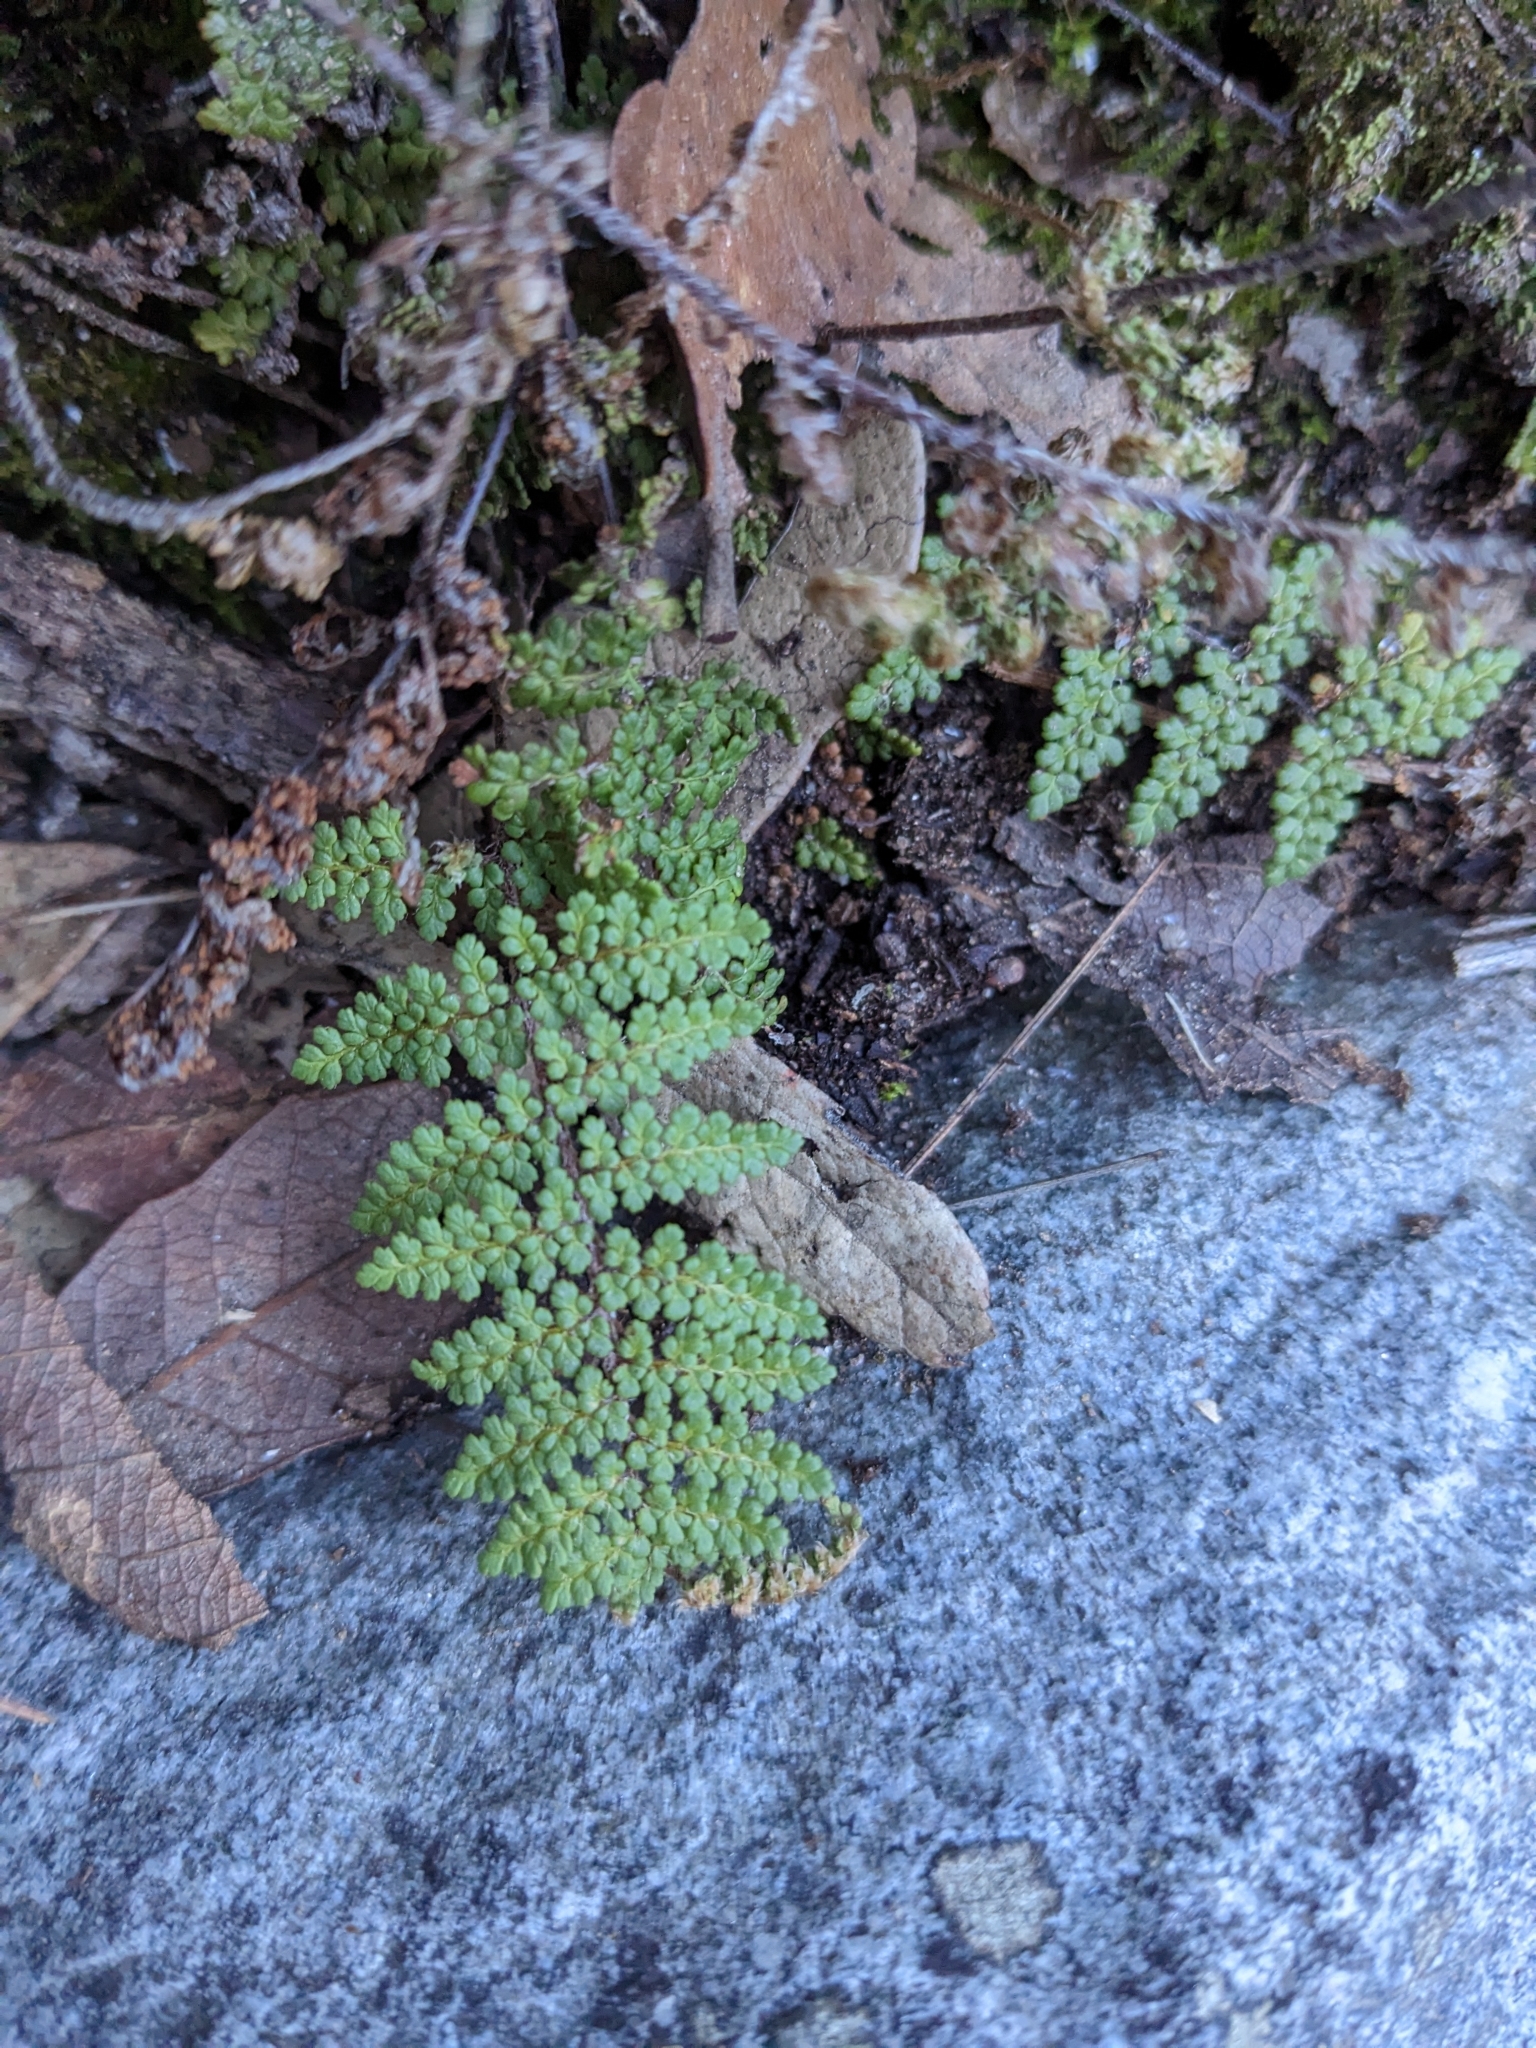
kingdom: Plantae
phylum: Tracheophyta
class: Polypodiopsida
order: Polypodiales
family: Pteridaceae
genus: Myriopteris
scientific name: Myriopteris fendleri
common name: Fendler's lip fern
